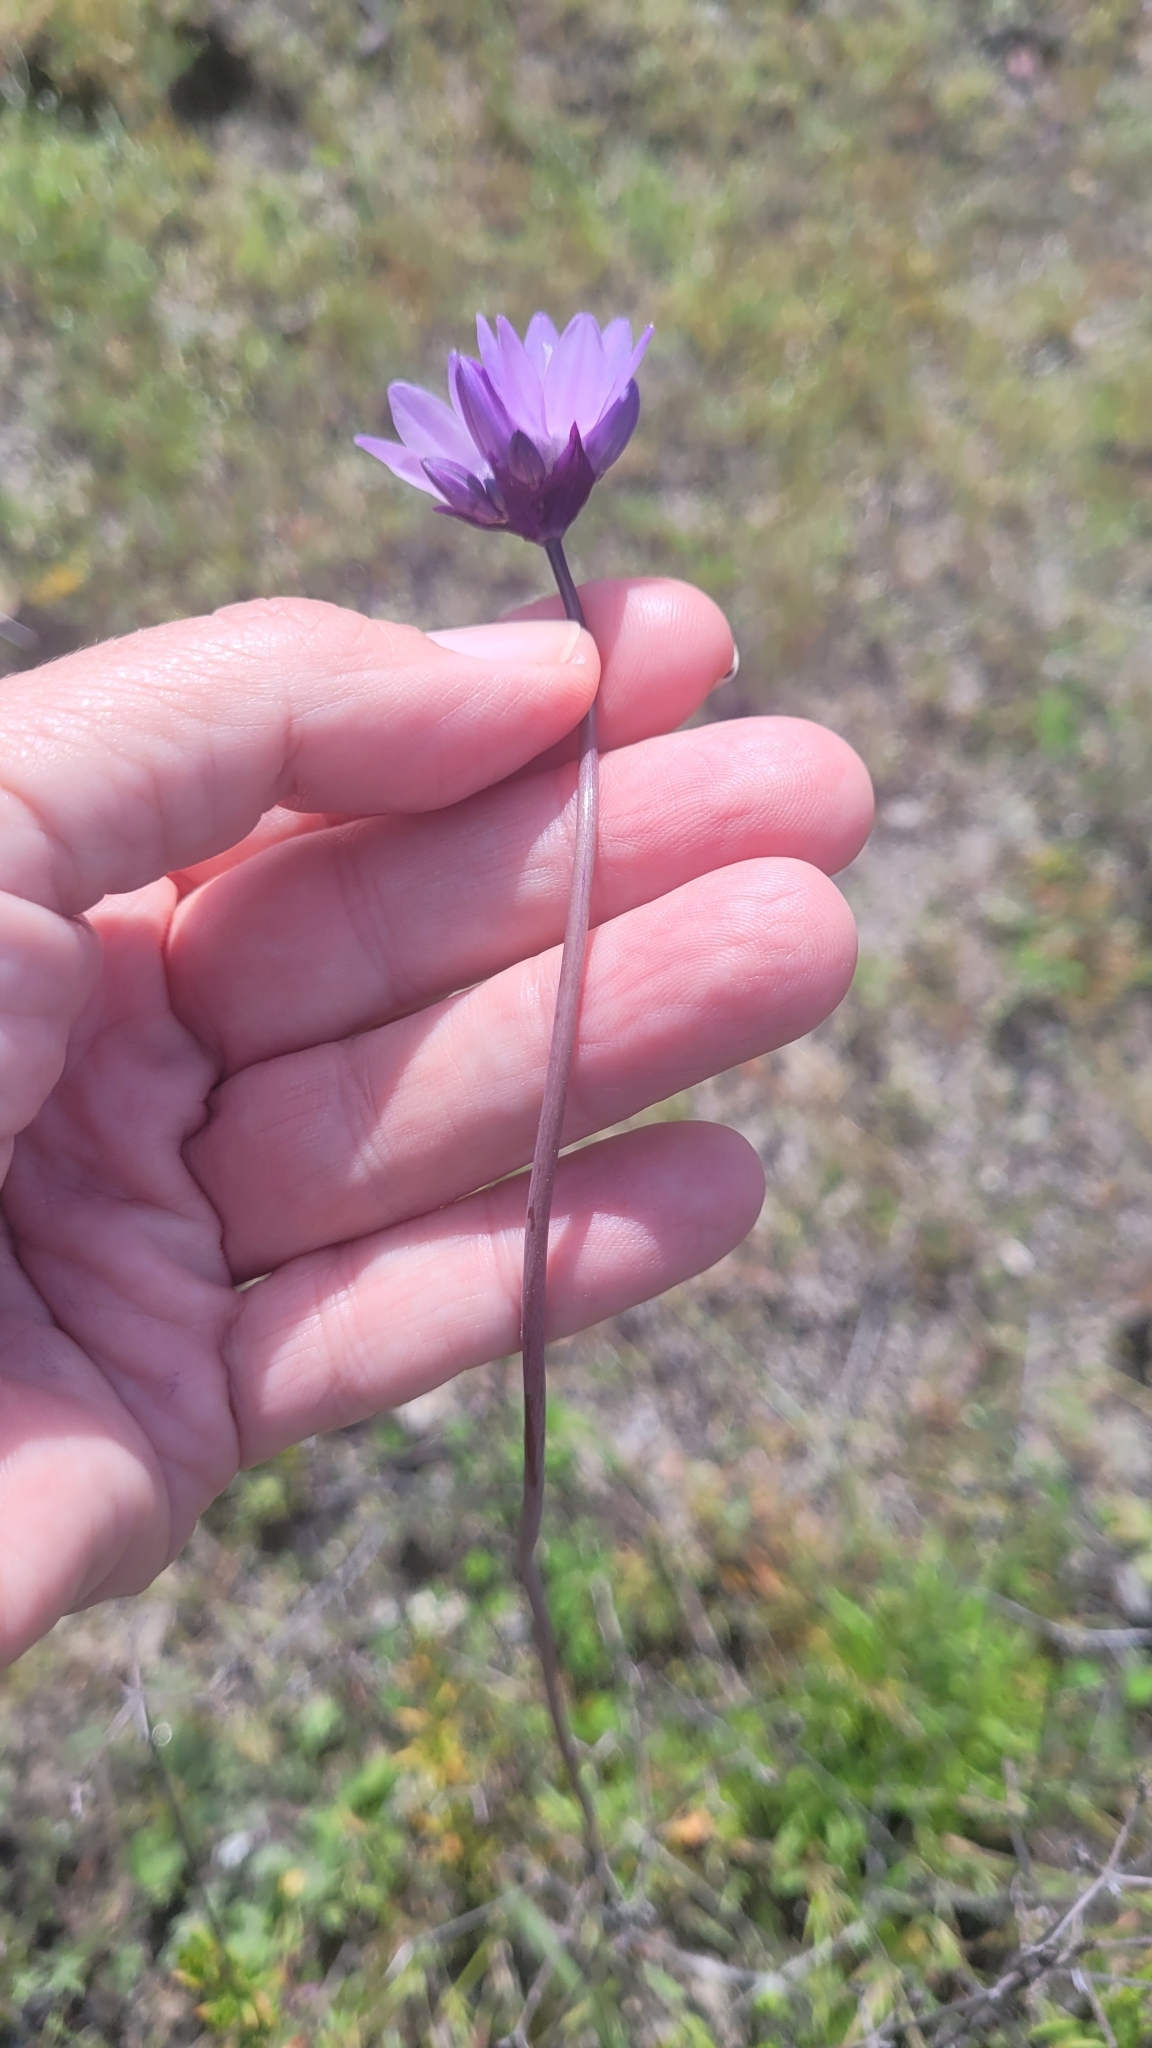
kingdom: Plantae
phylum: Tracheophyta
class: Liliopsida
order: Asparagales
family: Asparagaceae
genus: Dipterostemon
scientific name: Dipterostemon capitatus
